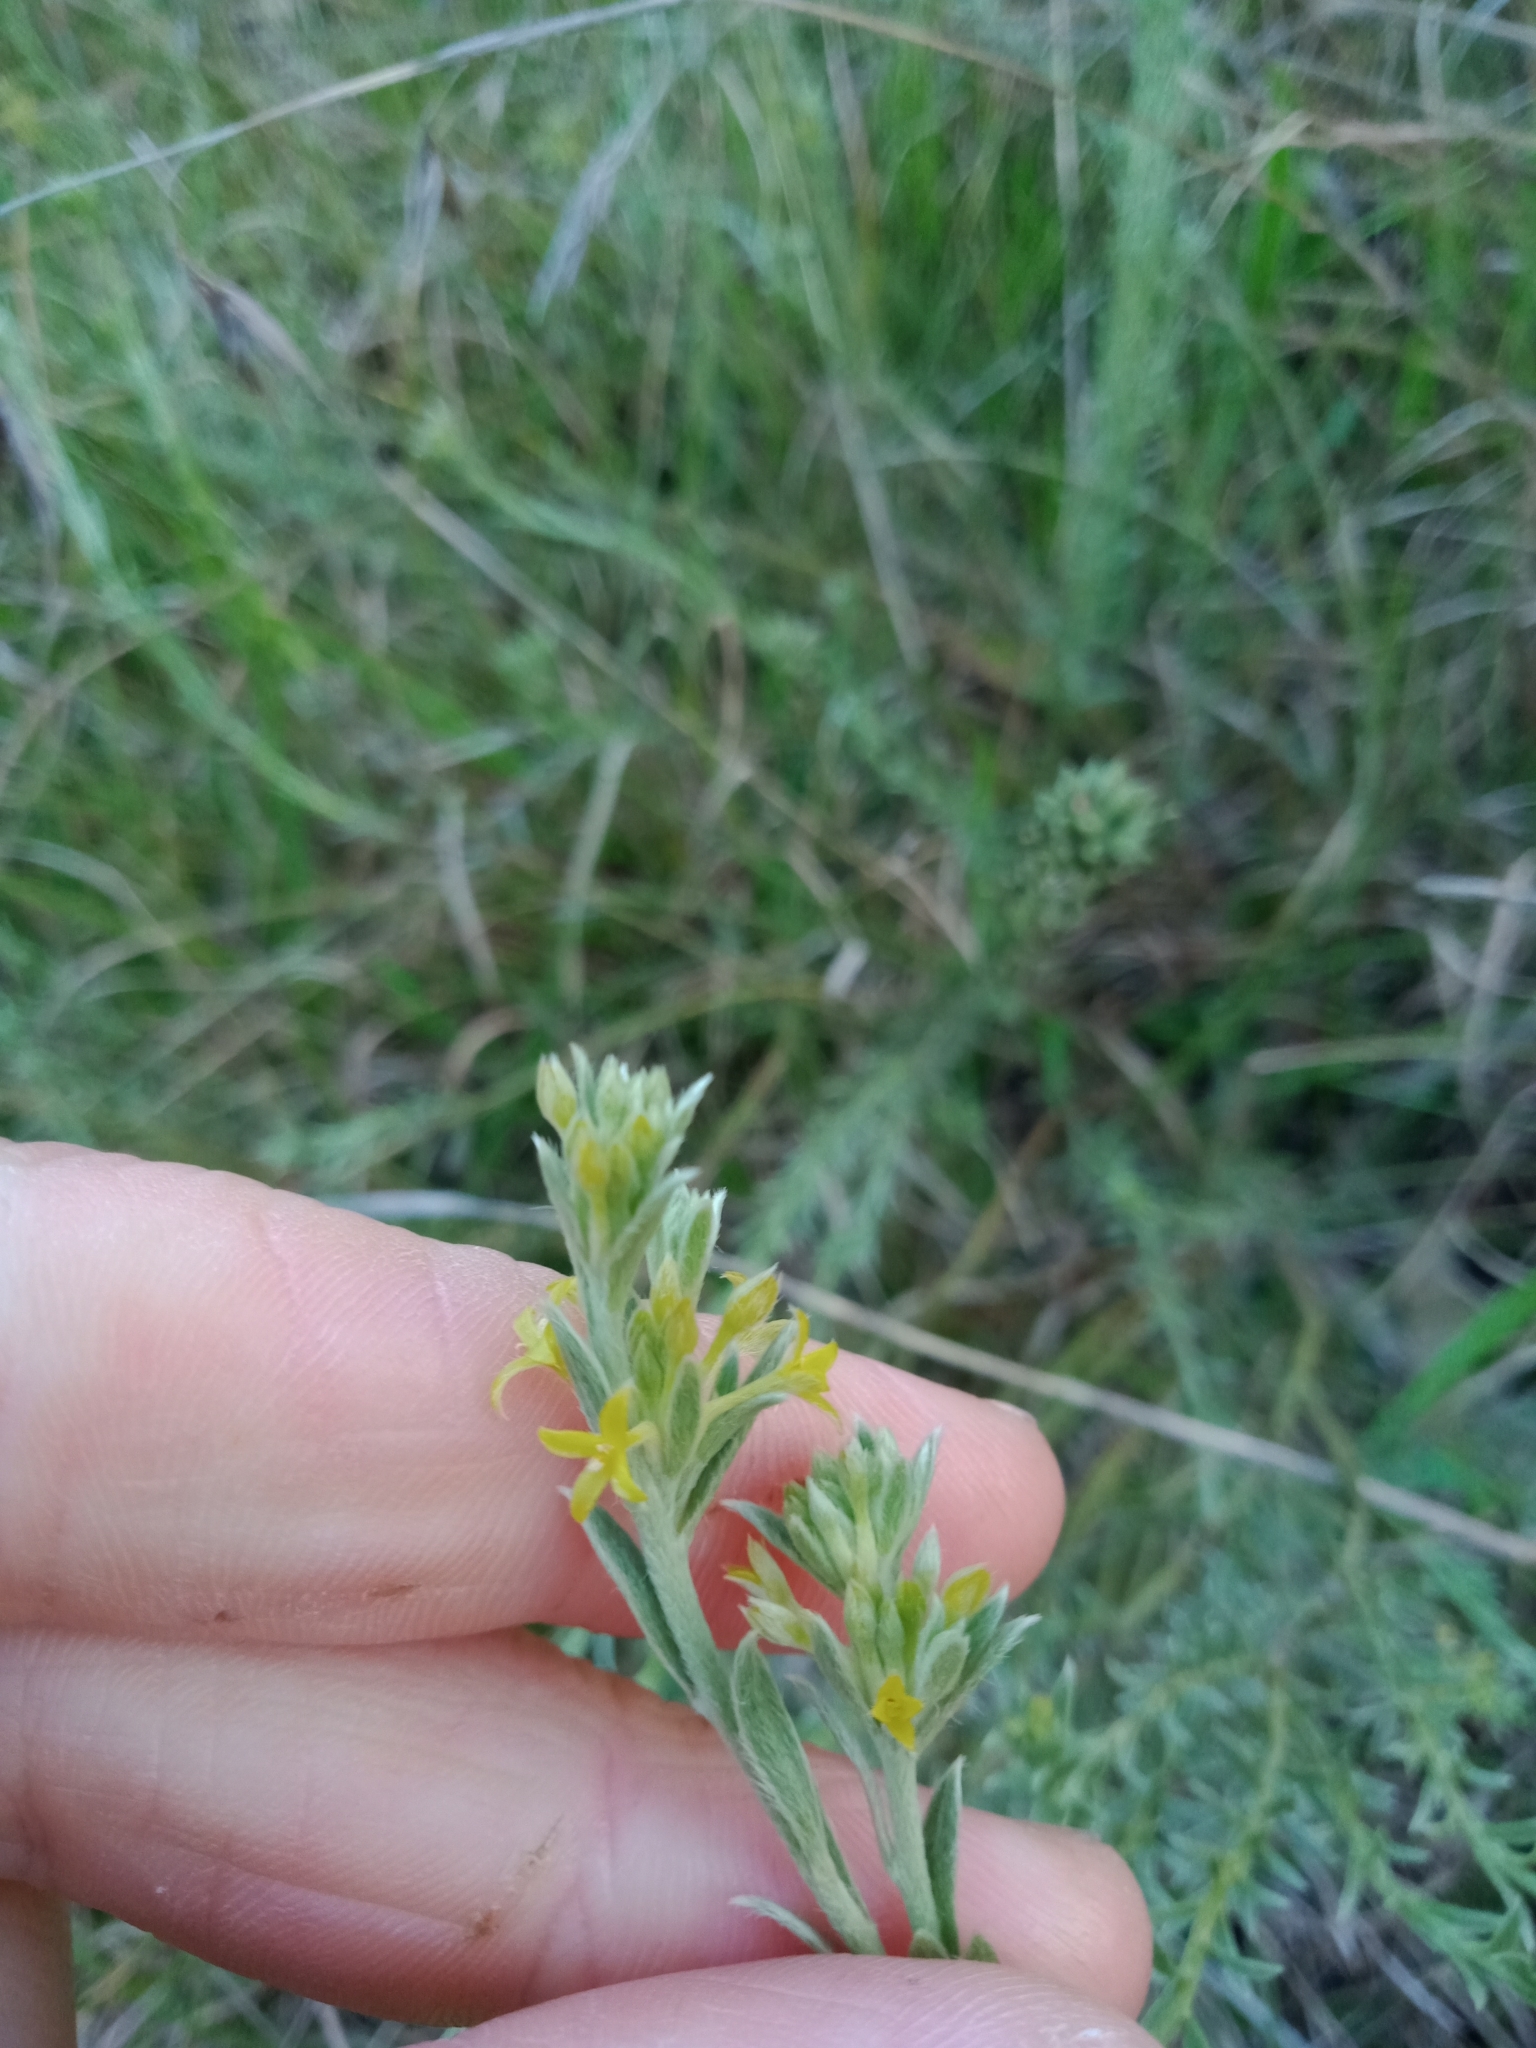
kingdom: Plantae
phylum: Tracheophyta
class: Magnoliopsida
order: Malvales
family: Thymelaeaceae
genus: Pimelea
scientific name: Pimelea curviflora
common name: Curved riceflower
